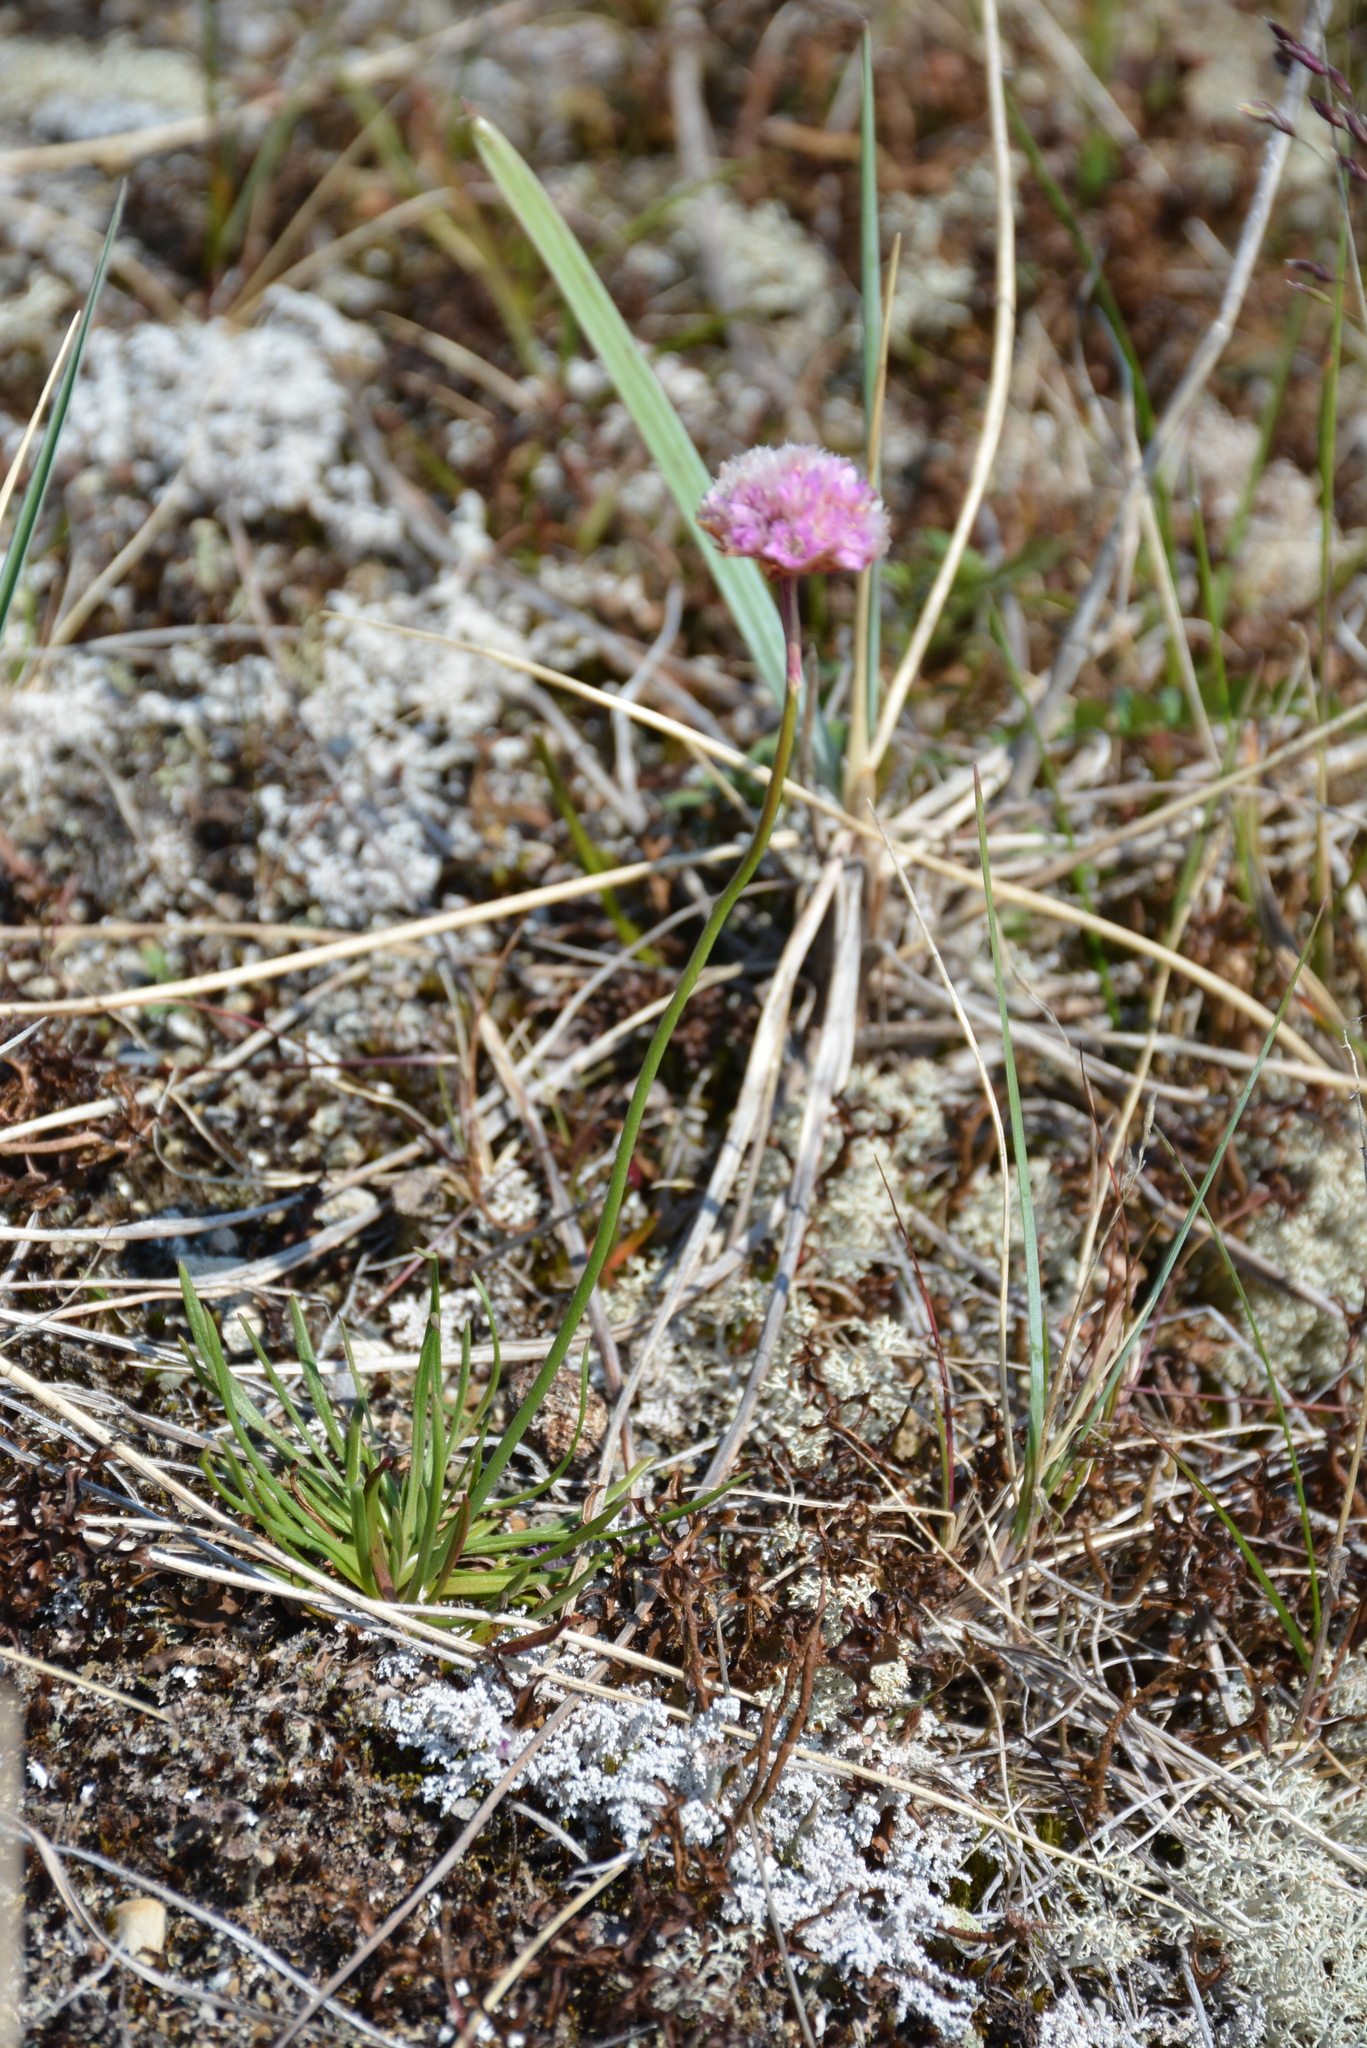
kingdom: Plantae
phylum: Tracheophyta
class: Magnoliopsida
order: Caryophyllales
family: Plumbaginaceae
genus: Armeria
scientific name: Armeria maritima
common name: Thrift
